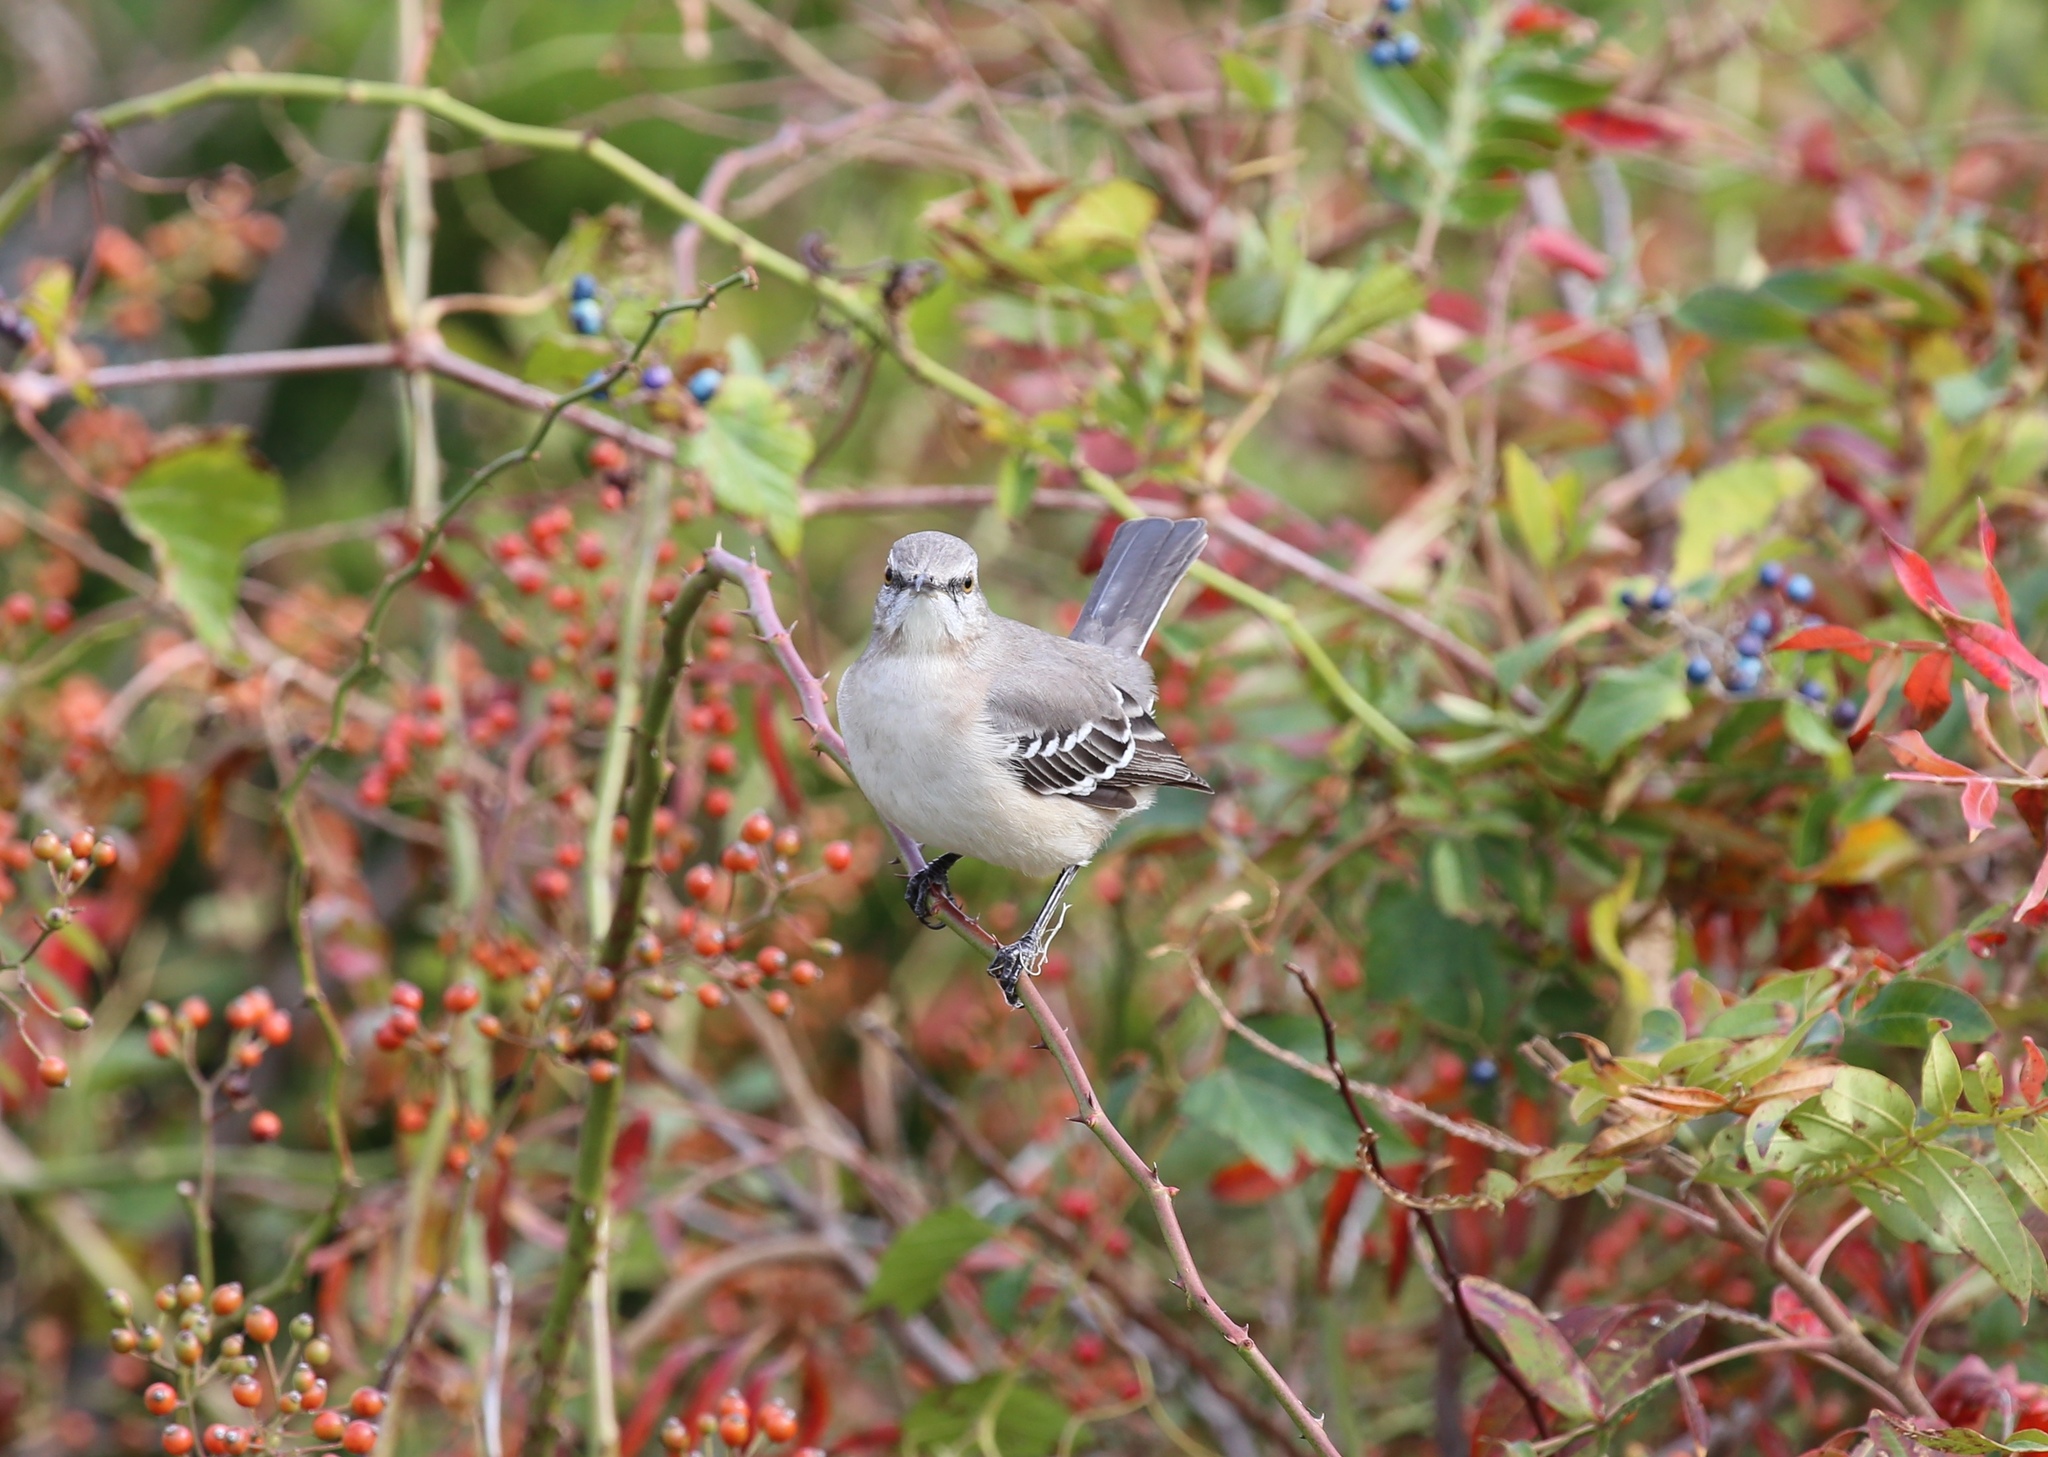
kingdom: Animalia
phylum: Chordata
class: Aves
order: Passeriformes
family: Mimidae
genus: Mimus
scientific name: Mimus polyglottos
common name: Northern mockingbird
